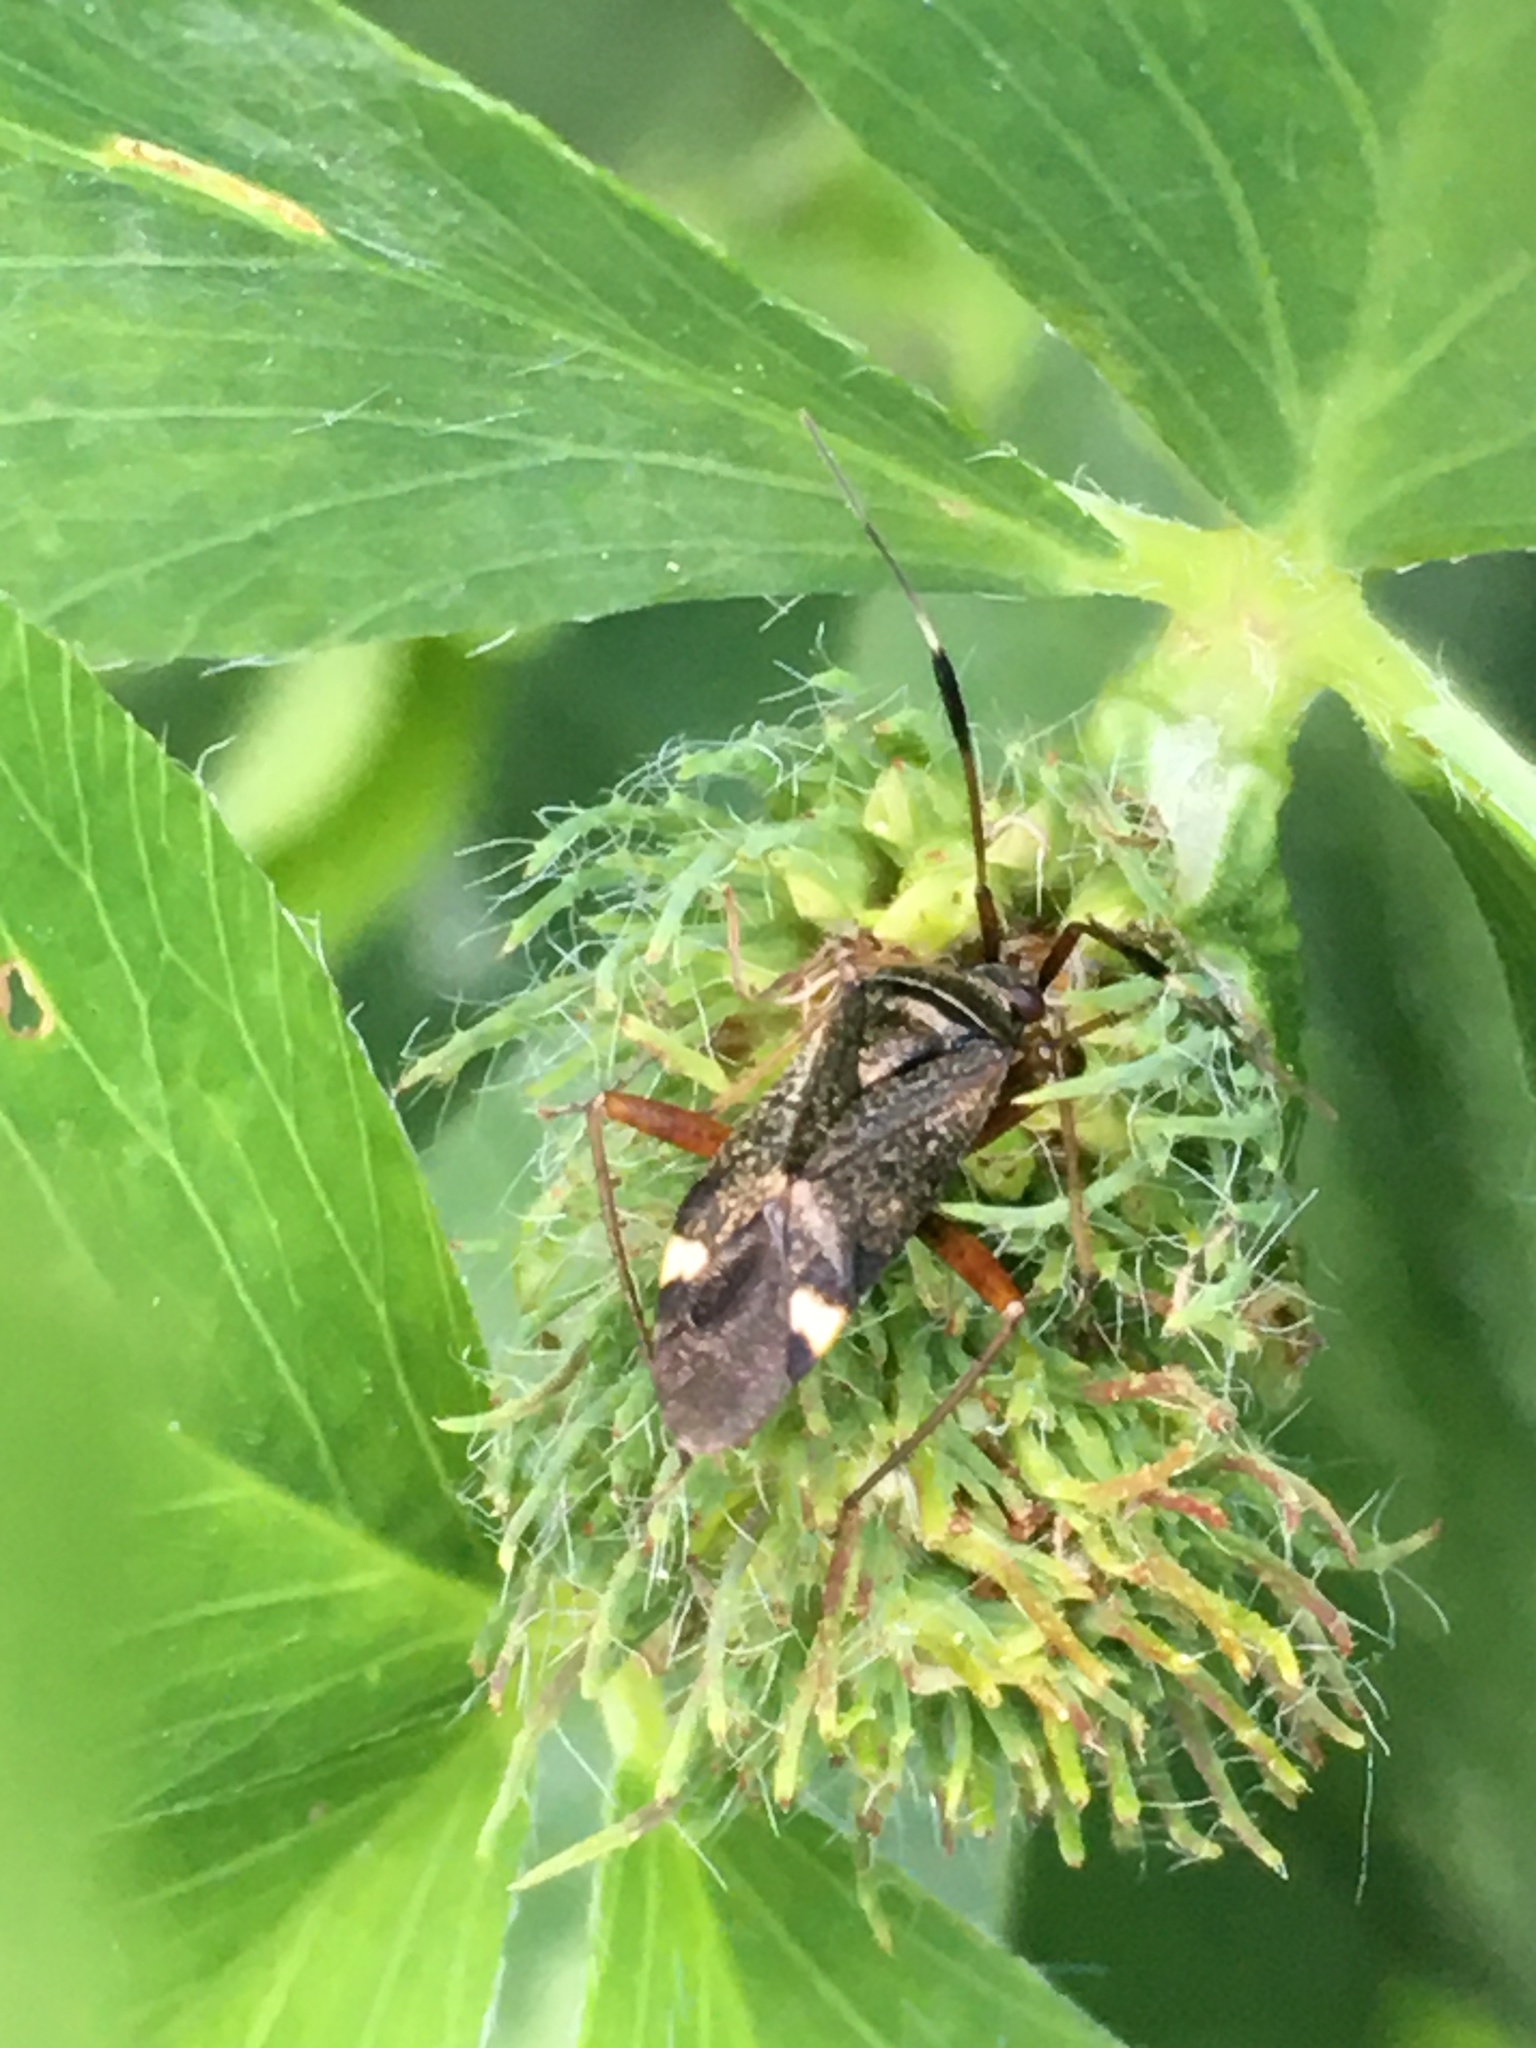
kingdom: Animalia
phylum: Arthropoda
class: Insecta
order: Hemiptera
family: Miridae
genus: Closterotomus
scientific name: Closterotomus biclavatus
